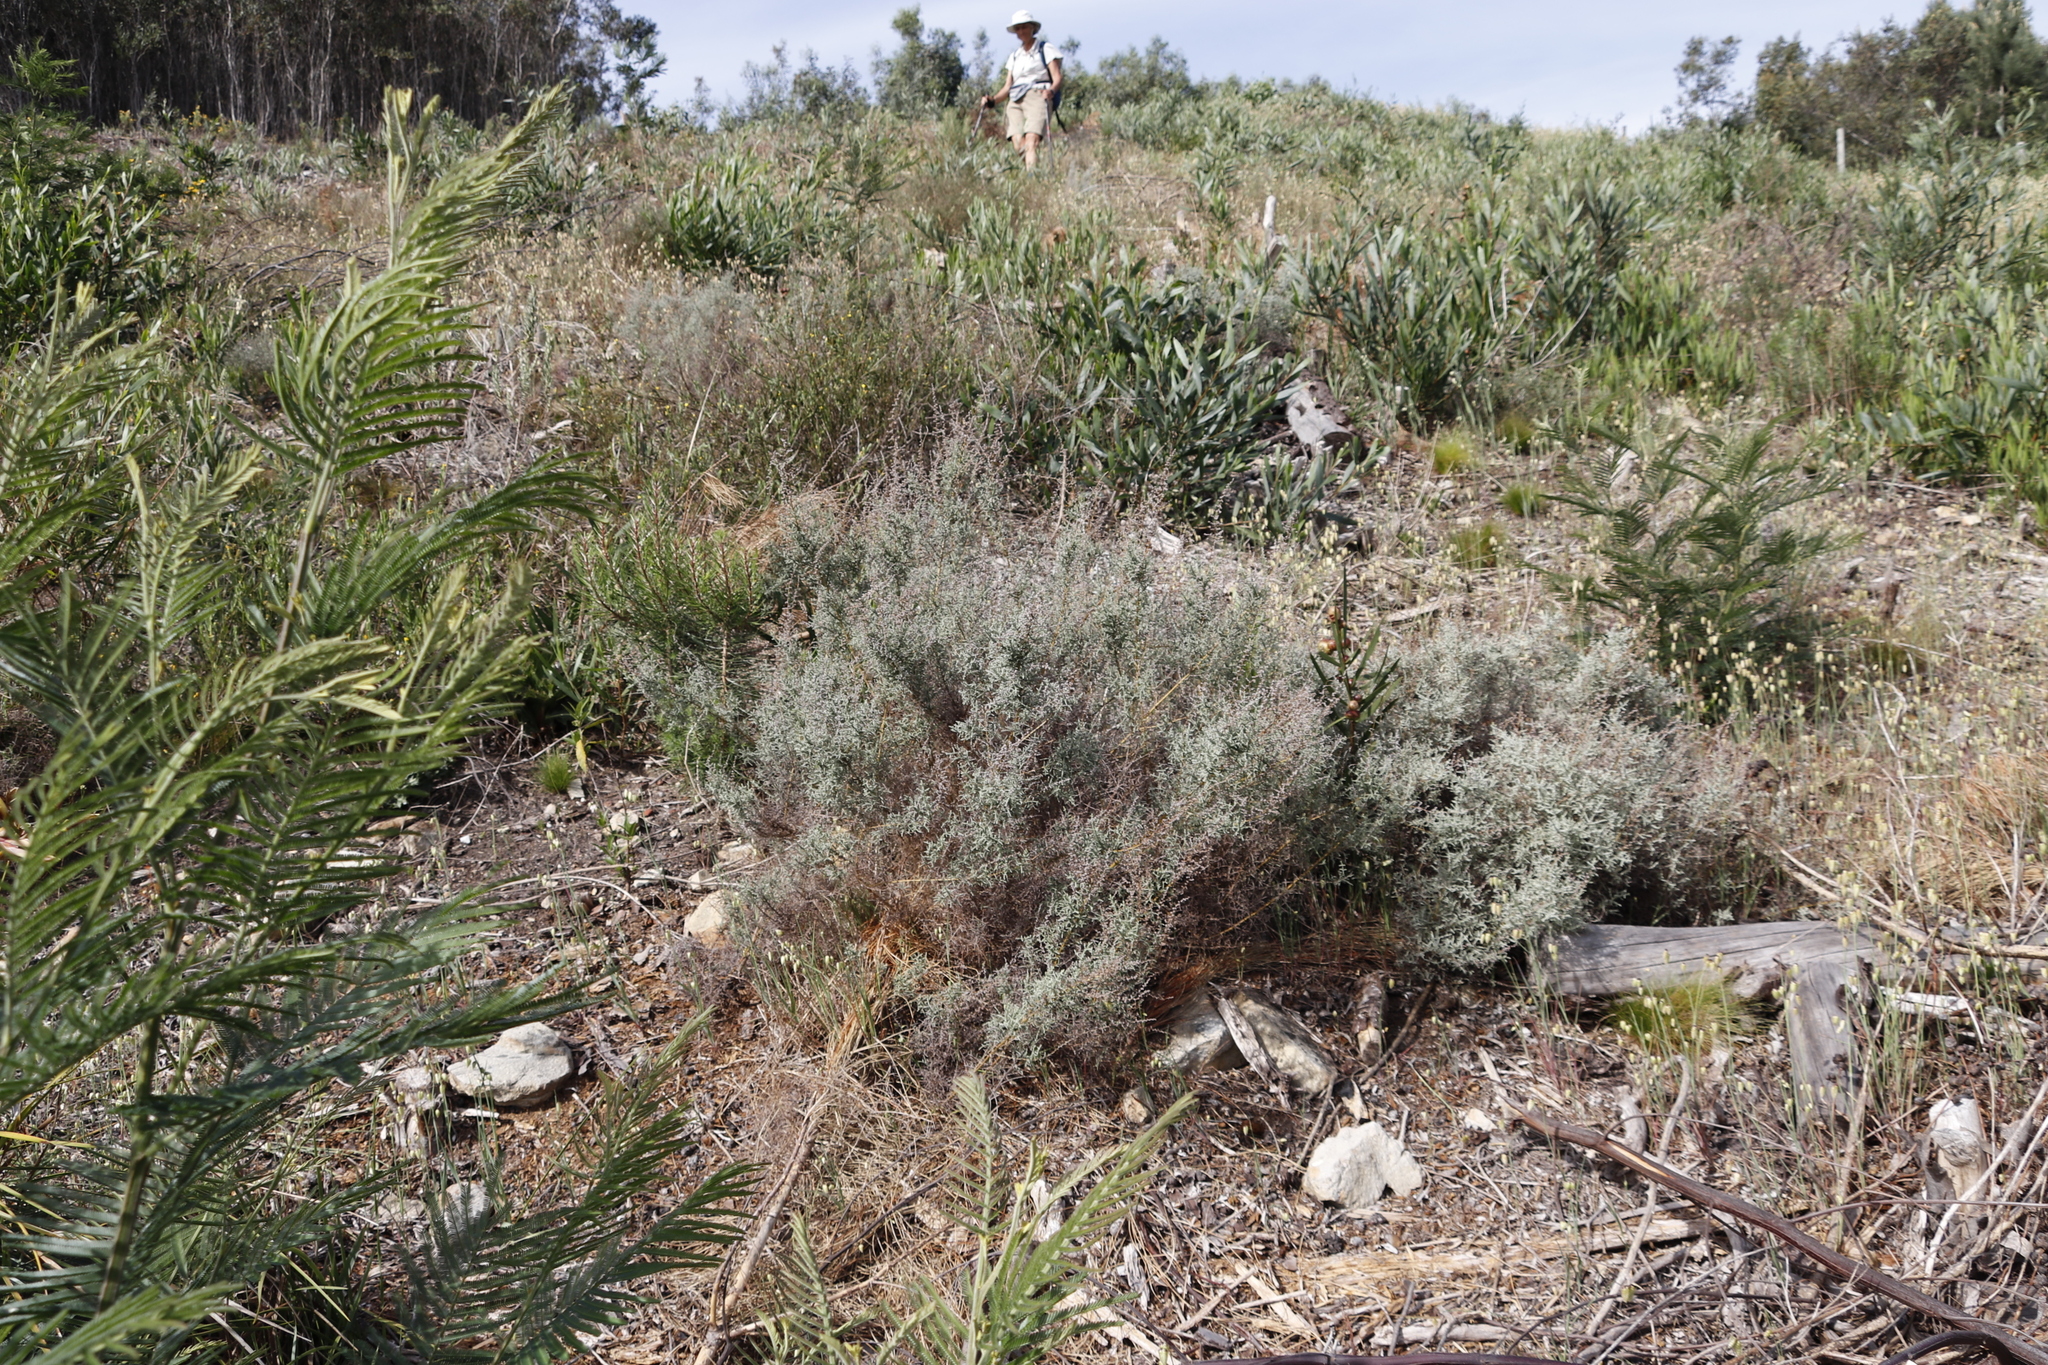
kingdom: Plantae
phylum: Tracheophyta
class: Magnoliopsida
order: Asterales
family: Asteraceae
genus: Seriphium
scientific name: Seriphium plumosum
